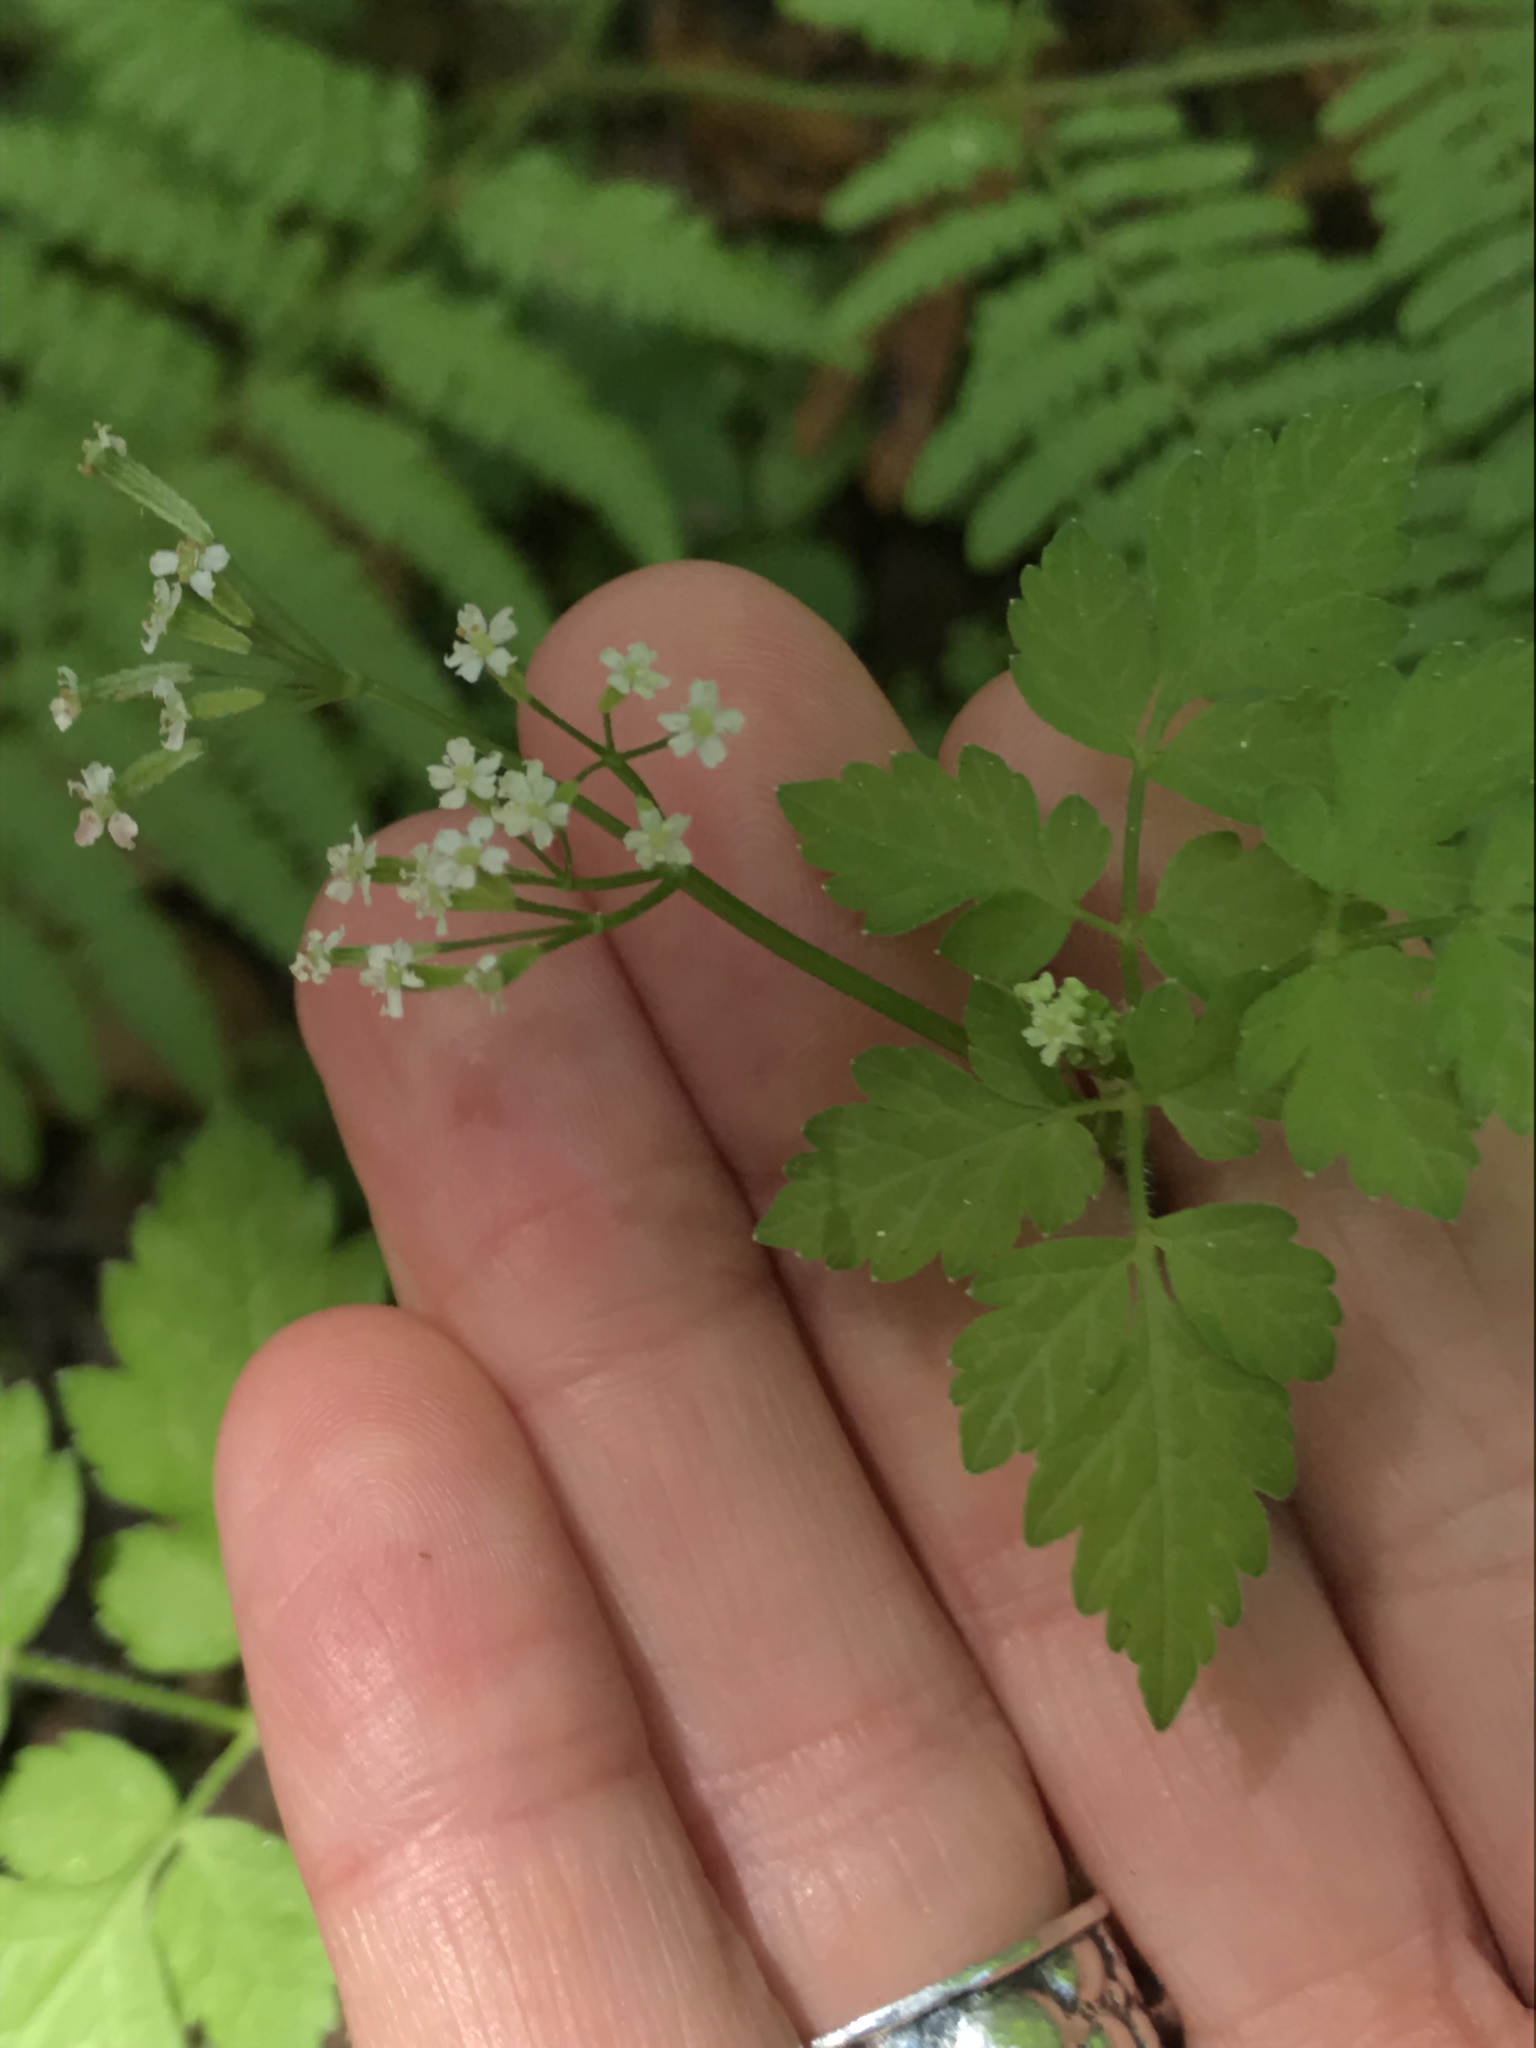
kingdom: Plantae
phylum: Tracheophyta
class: Magnoliopsida
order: Apiales
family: Apiaceae
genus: Osmorhiza
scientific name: Osmorhiza berteroi
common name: Mountain sweet cicely
